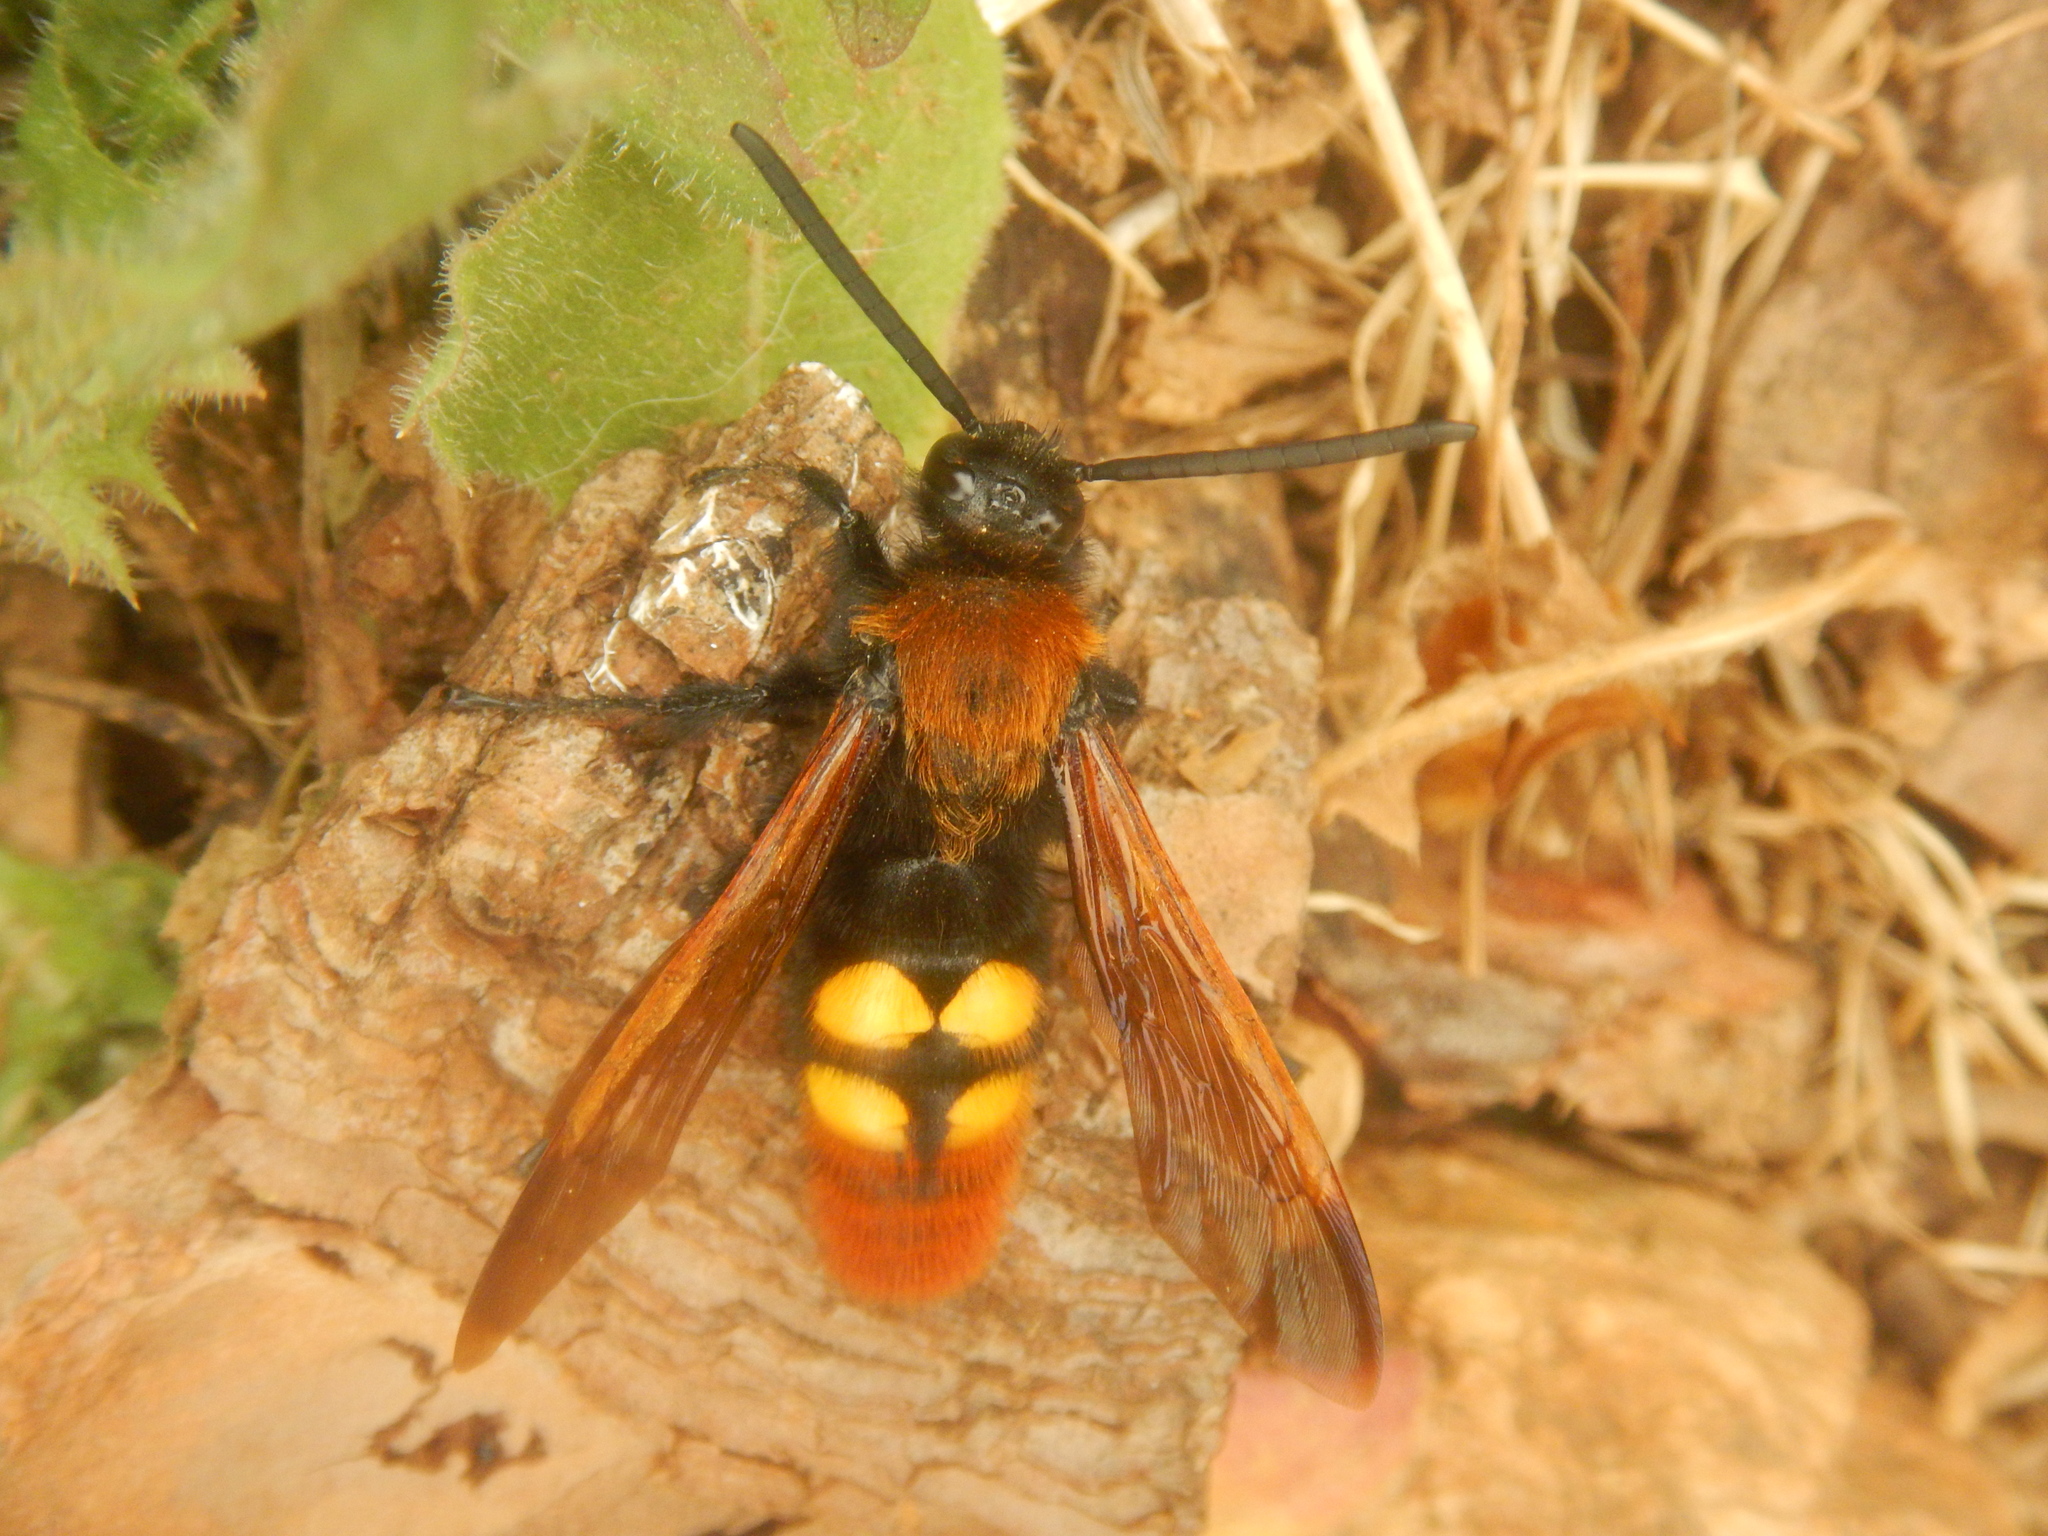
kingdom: Animalia
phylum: Arthropoda
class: Insecta
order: Hymenoptera
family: Scoliidae
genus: Megascolia
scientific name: Megascolia maculata
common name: Mammoth wasp
